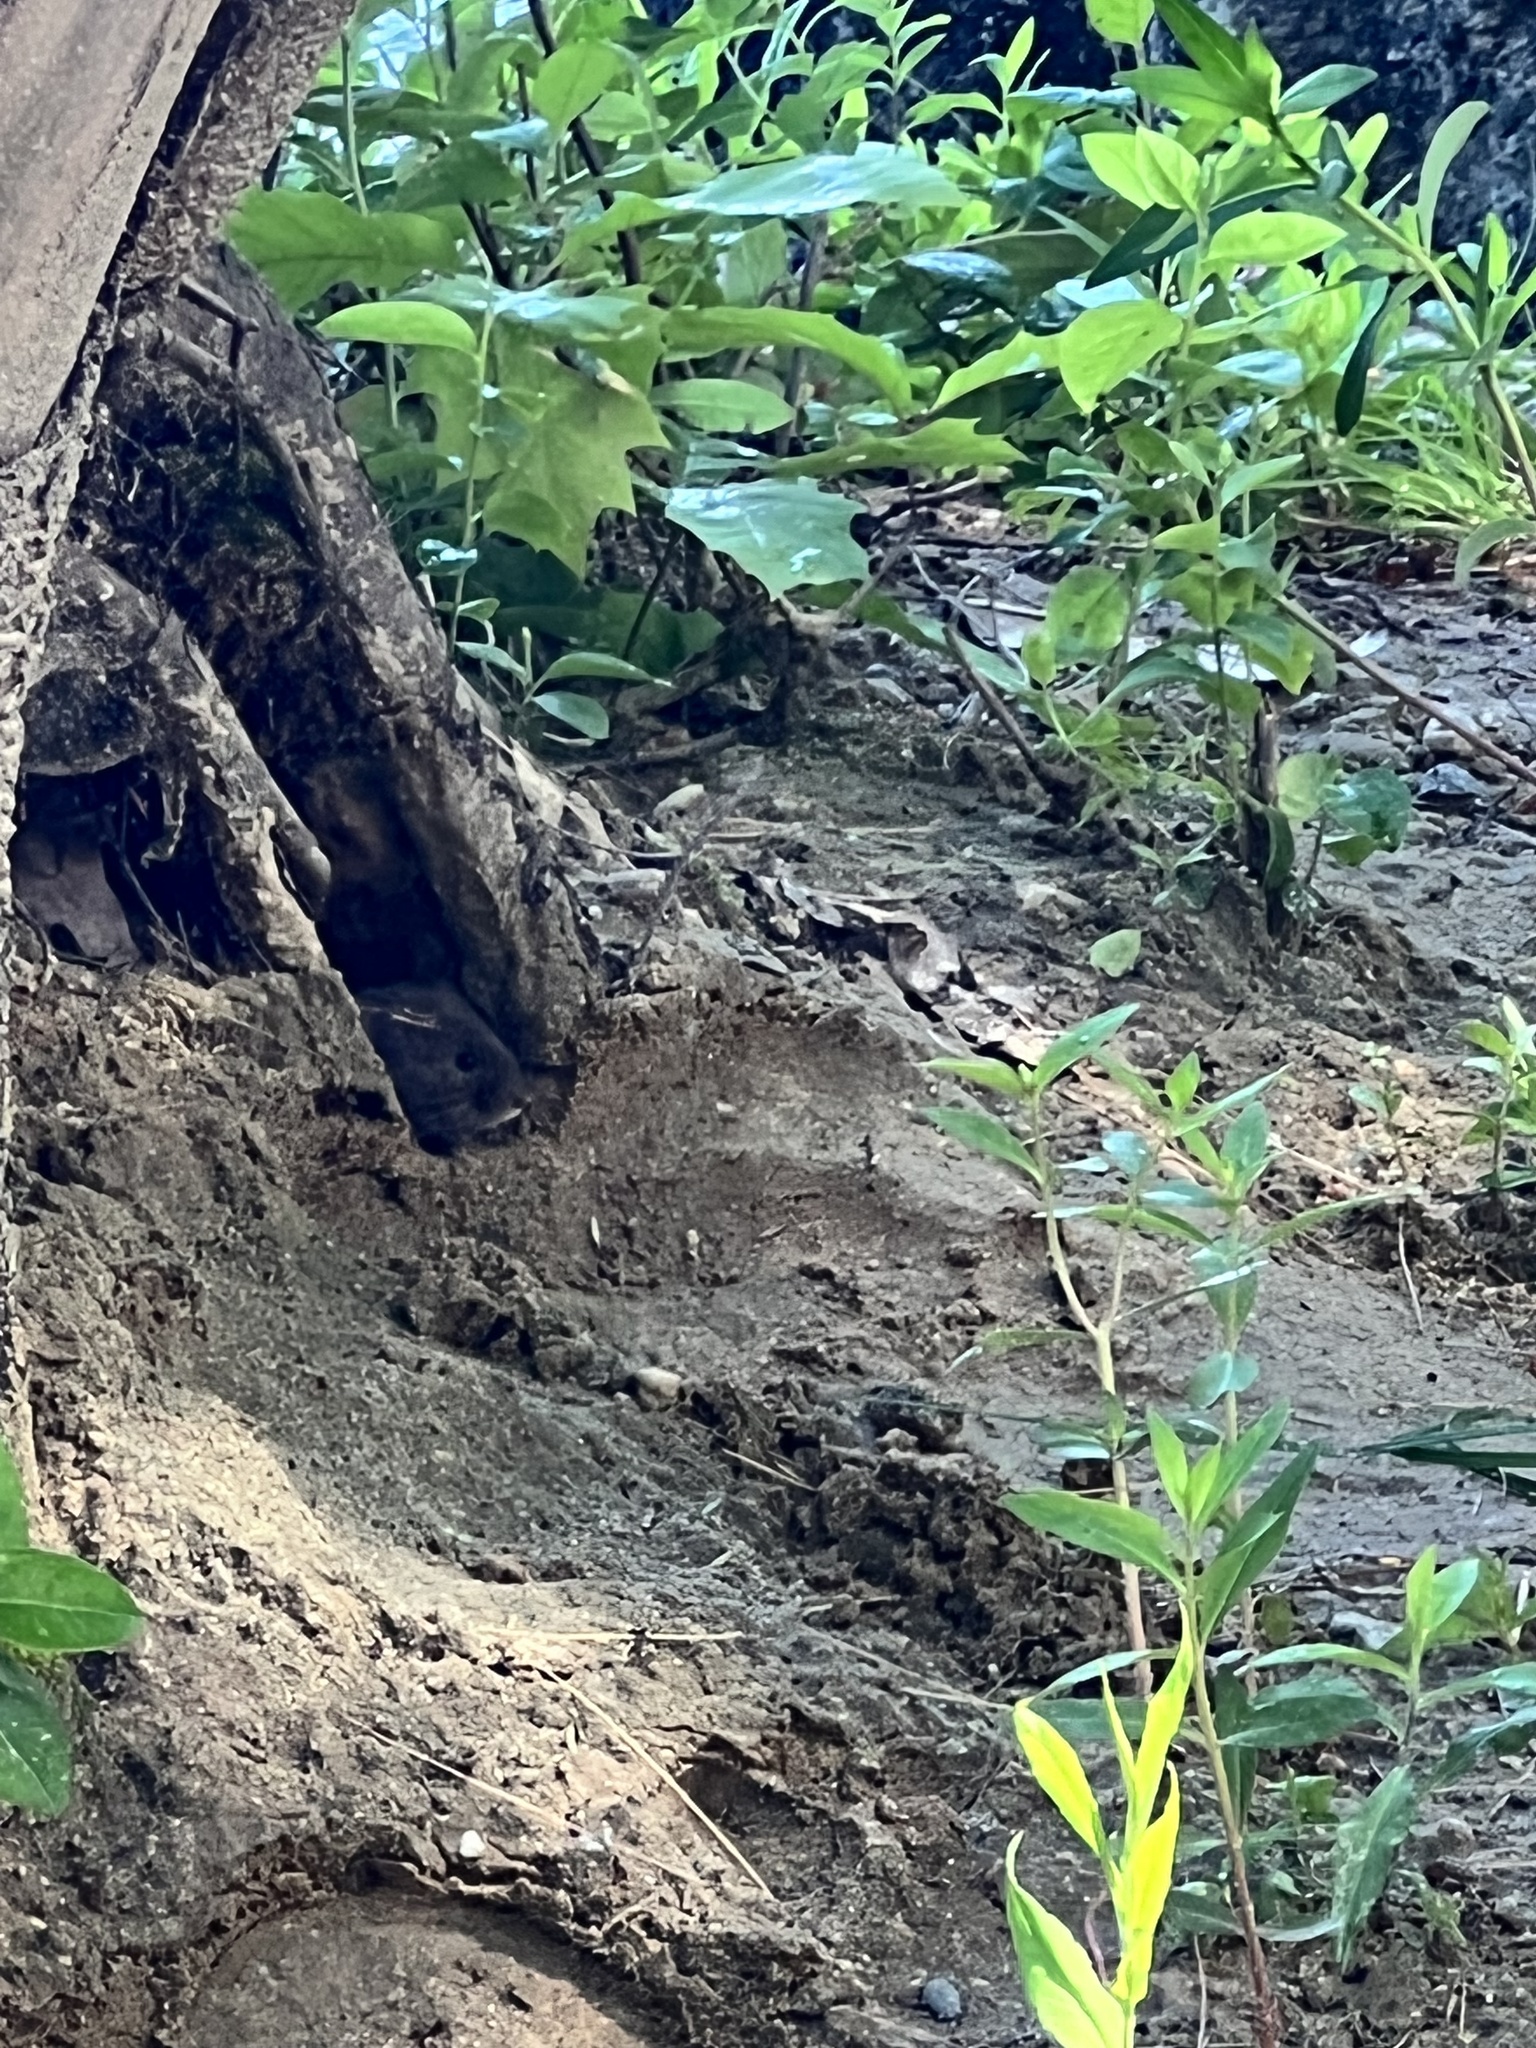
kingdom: Animalia
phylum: Chordata
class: Mammalia
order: Rodentia
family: Cricetidae
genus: Microtus
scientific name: Microtus pennsylvanicus
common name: Meadow vole
